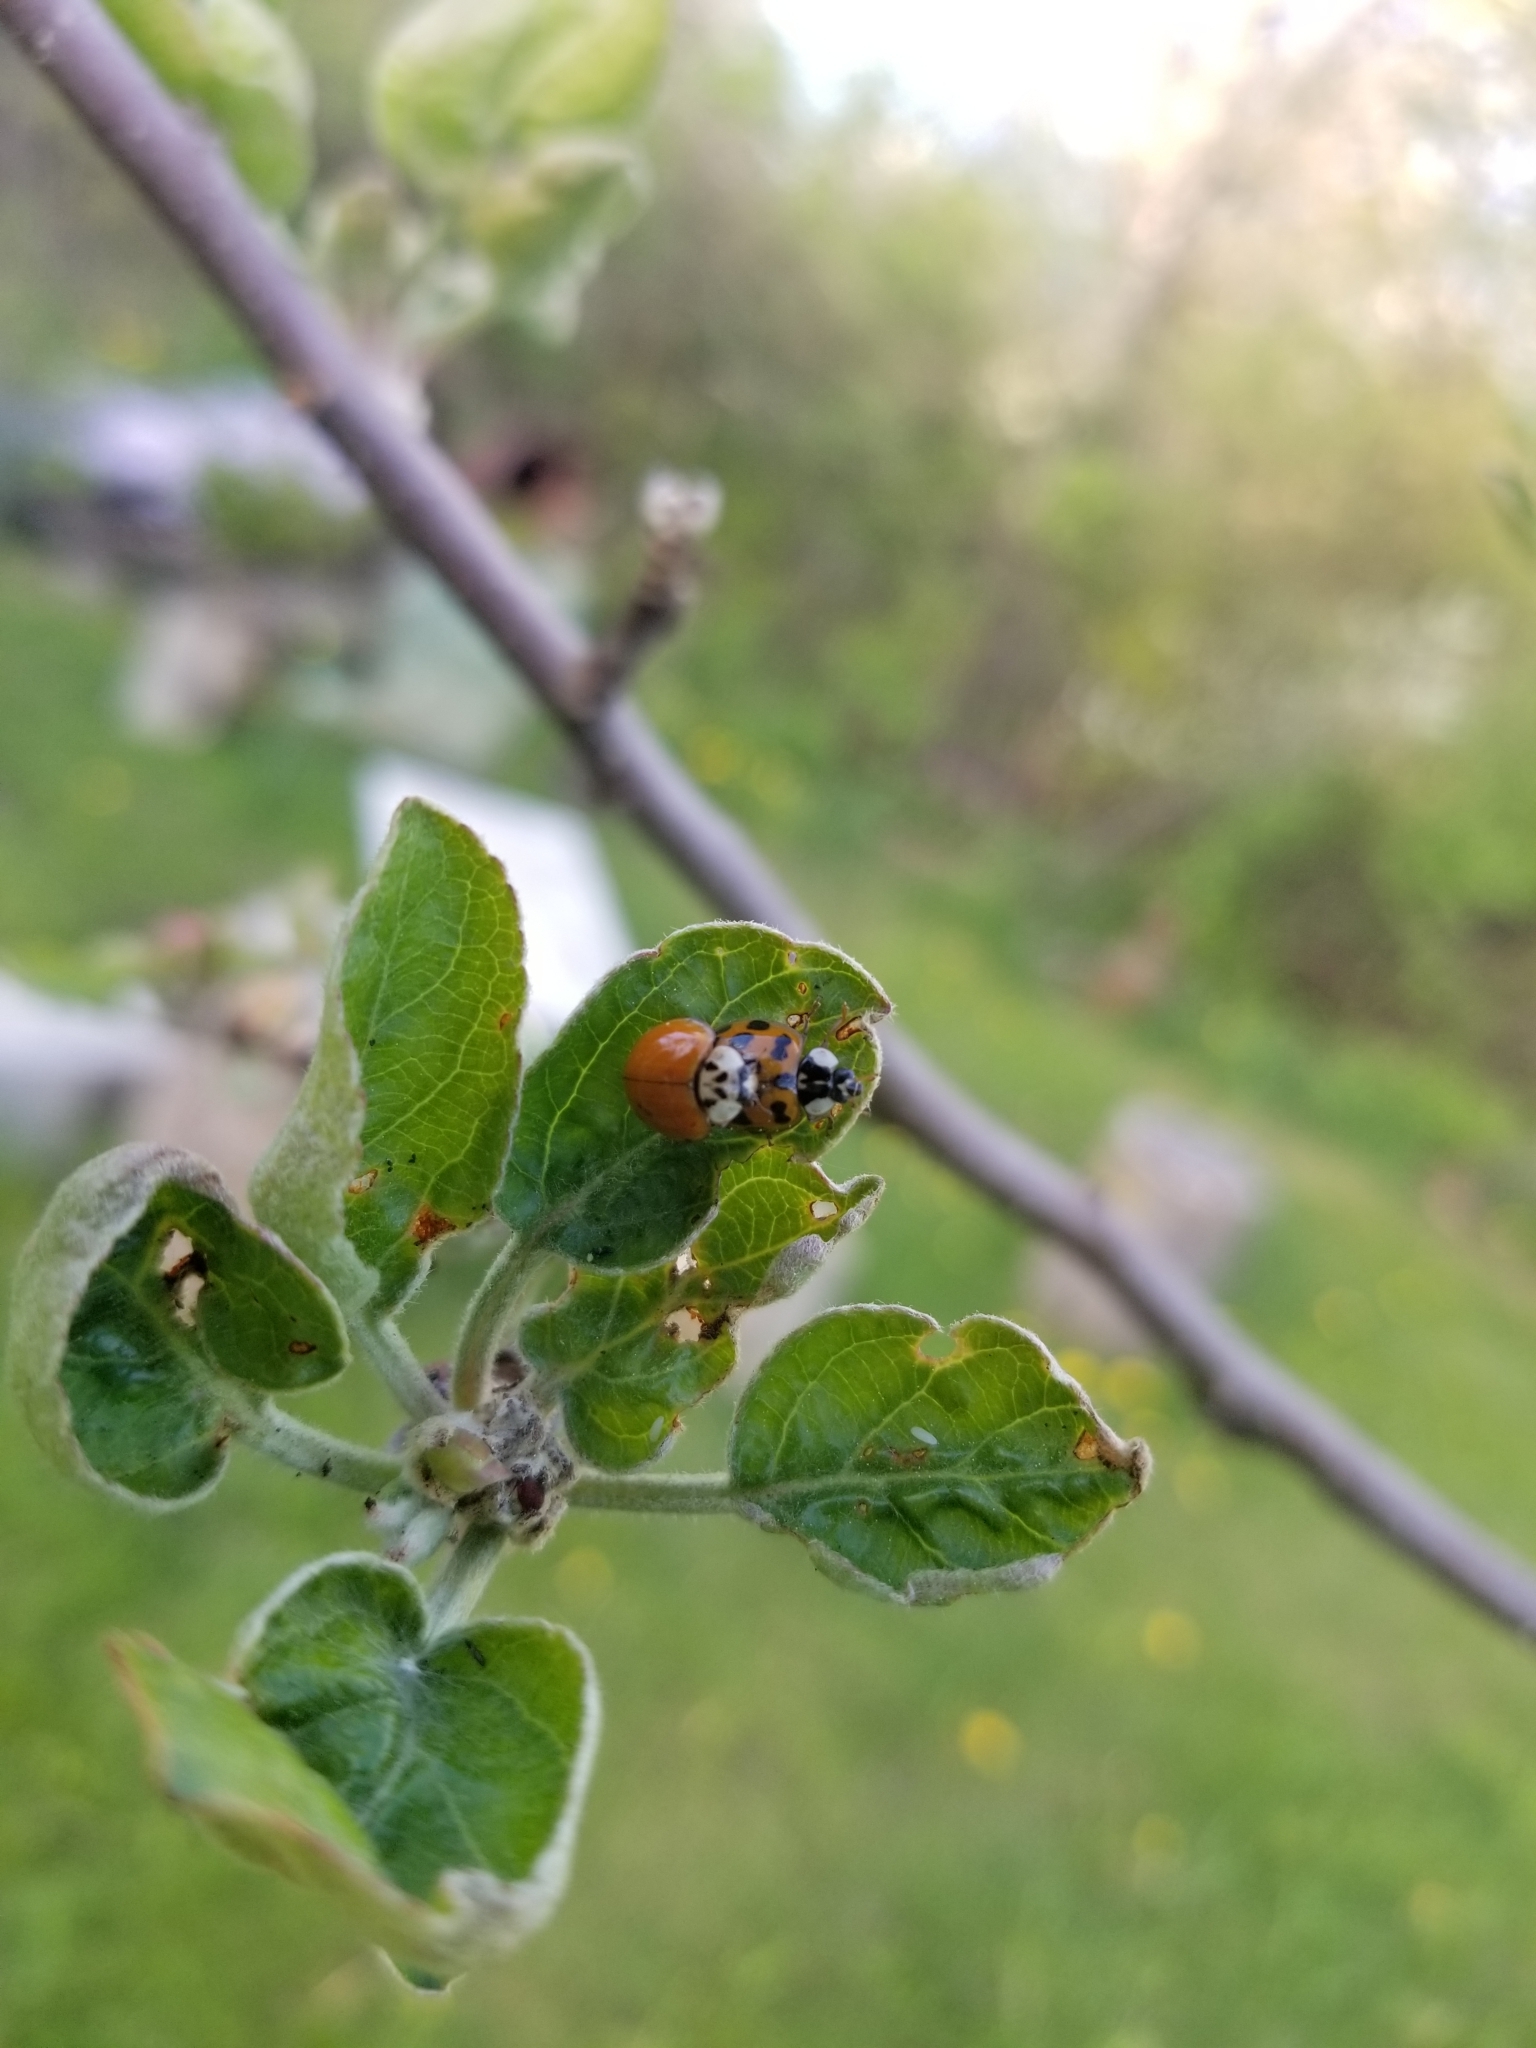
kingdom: Animalia
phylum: Arthropoda
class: Insecta
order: Coleoptera
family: Coccinellidae
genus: Harmonia
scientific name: Harmonia axyridis
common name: Harlequin ladybird
